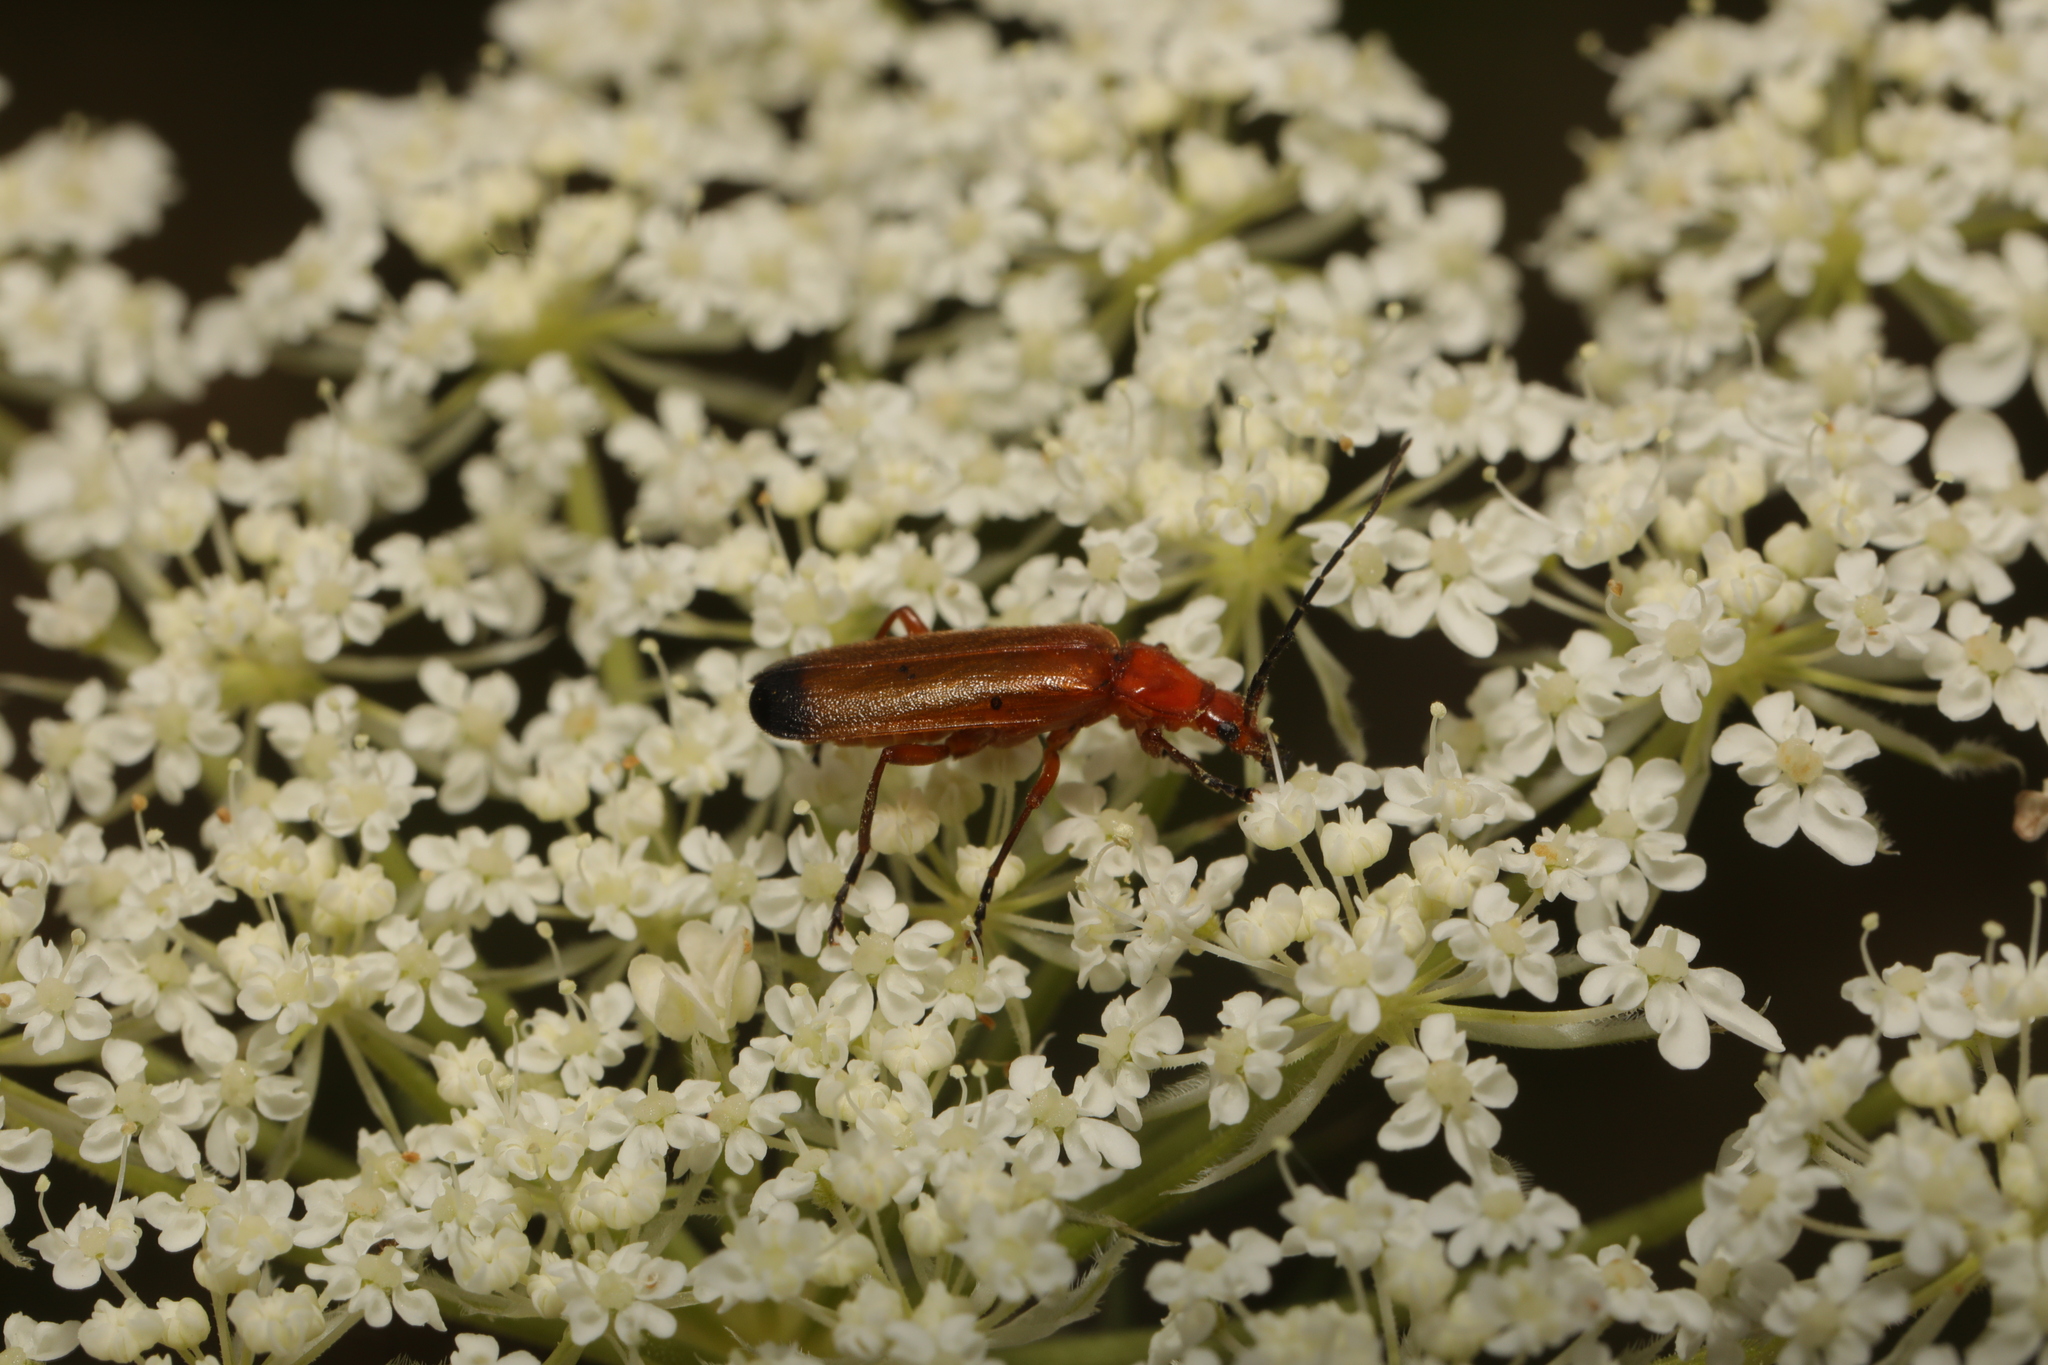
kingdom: Animalia
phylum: Arthropoda
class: Insecta
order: Coleoptera
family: Cantharidae
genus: Rhagonycha
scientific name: Rhagonycha fulva
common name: Common red soldier beetle
